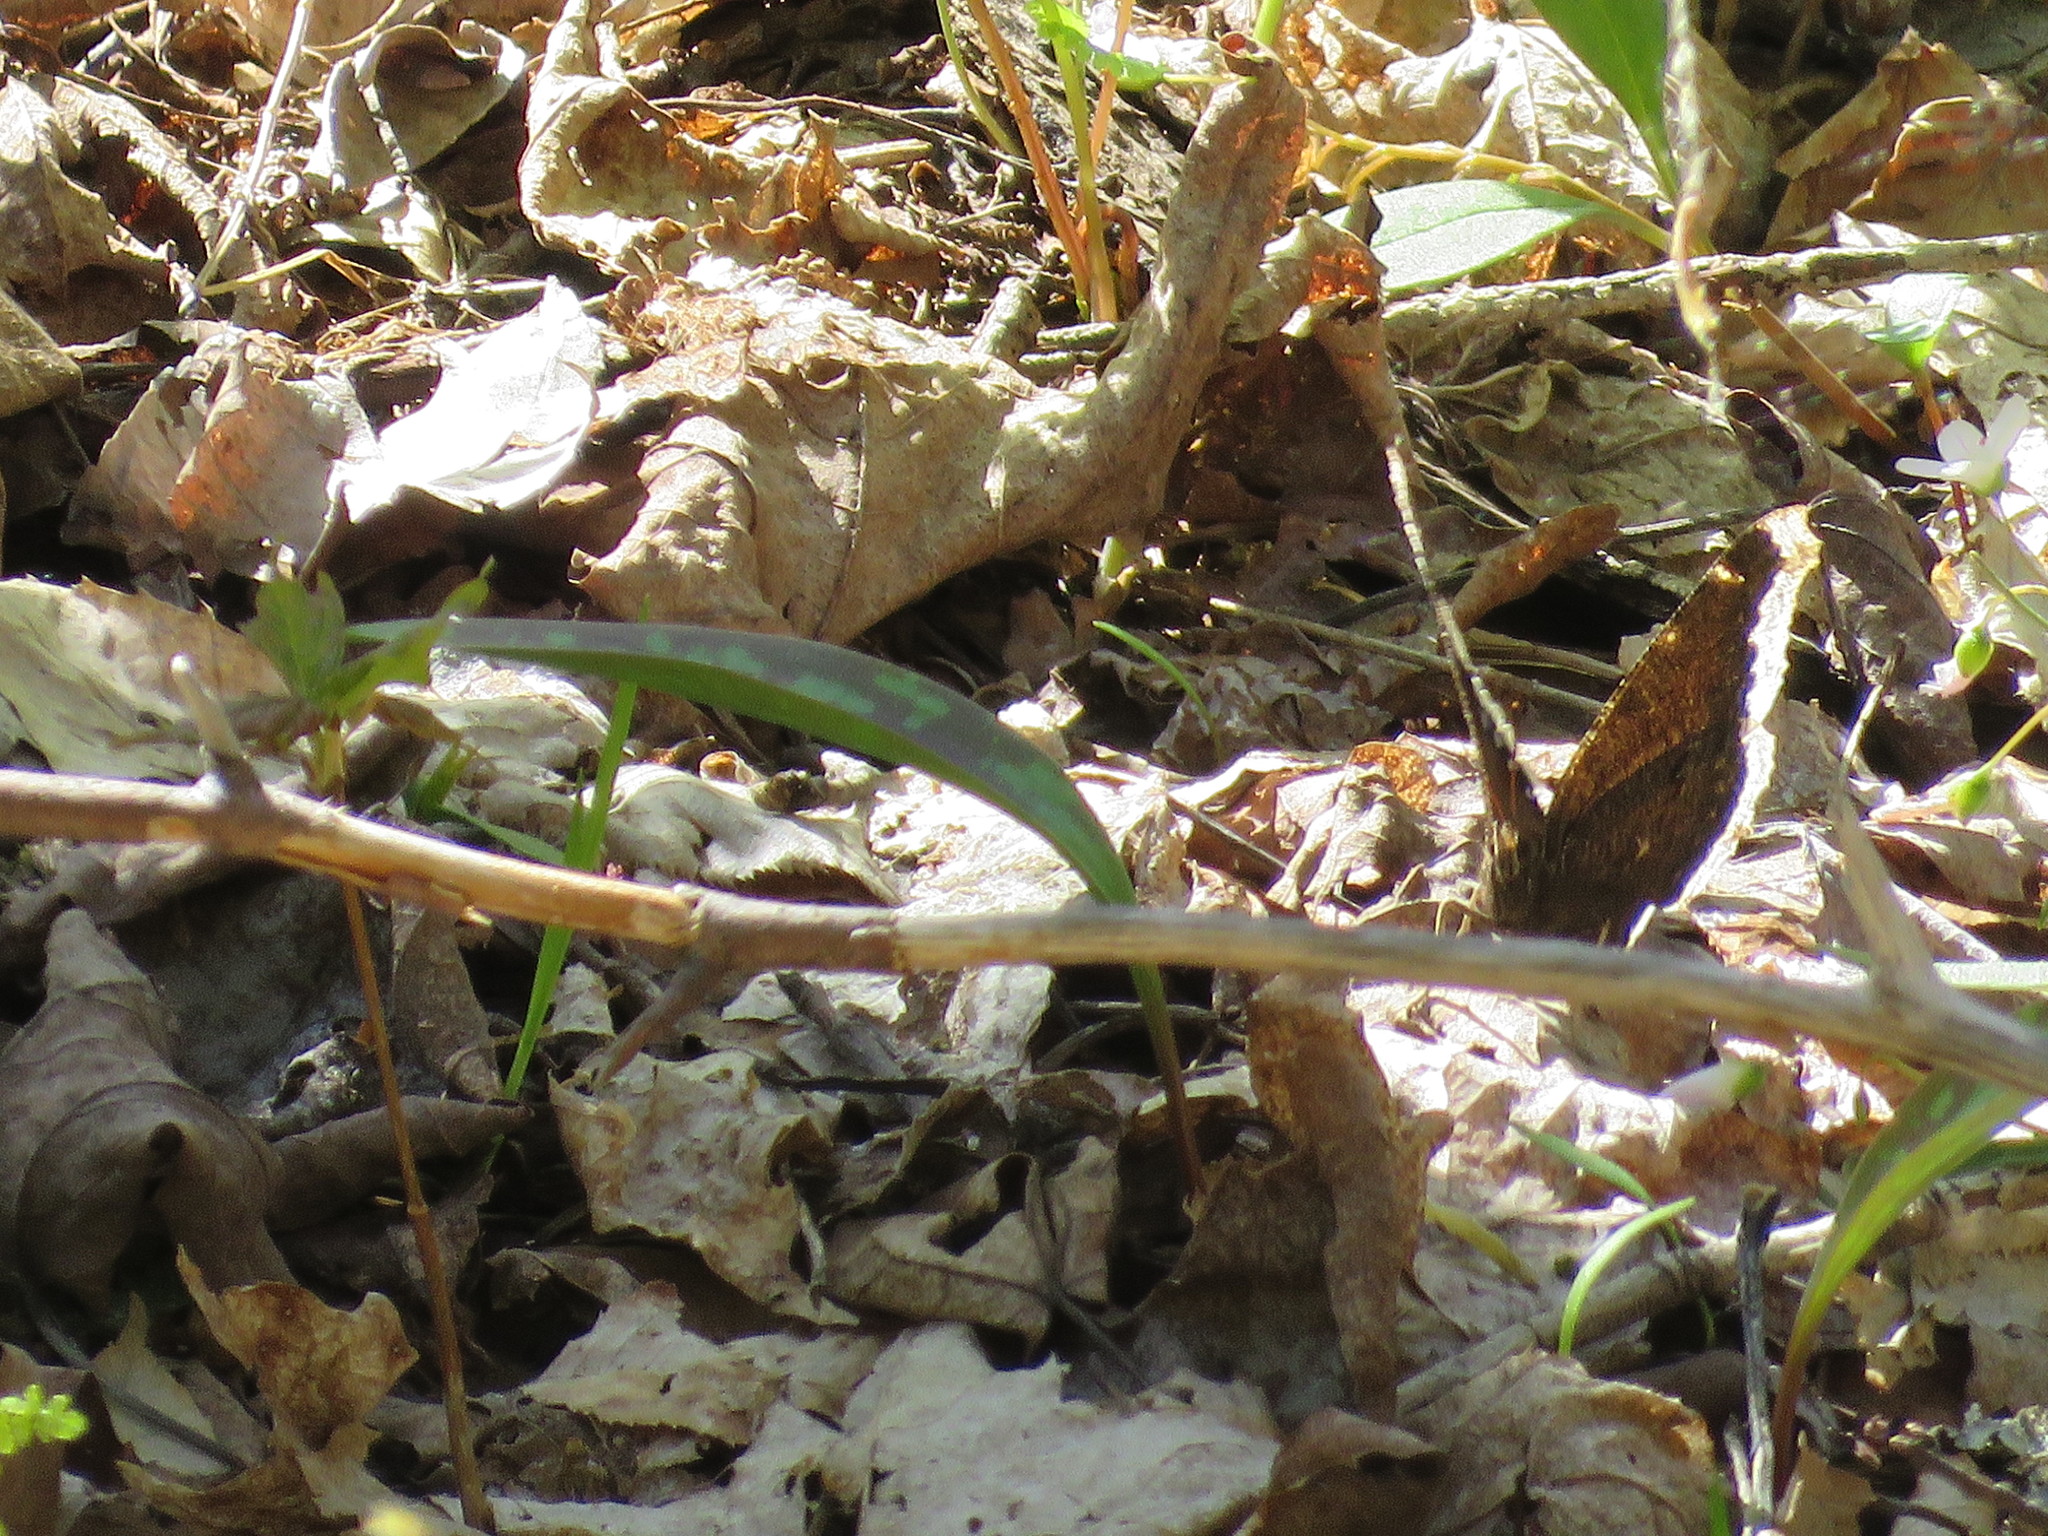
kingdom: Animalia
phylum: Arthropoda
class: Insecta
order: Lepidoptera
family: Nymphalidae
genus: Nymphalis
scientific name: Nymphalis antiopa
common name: Camberwell beauty
